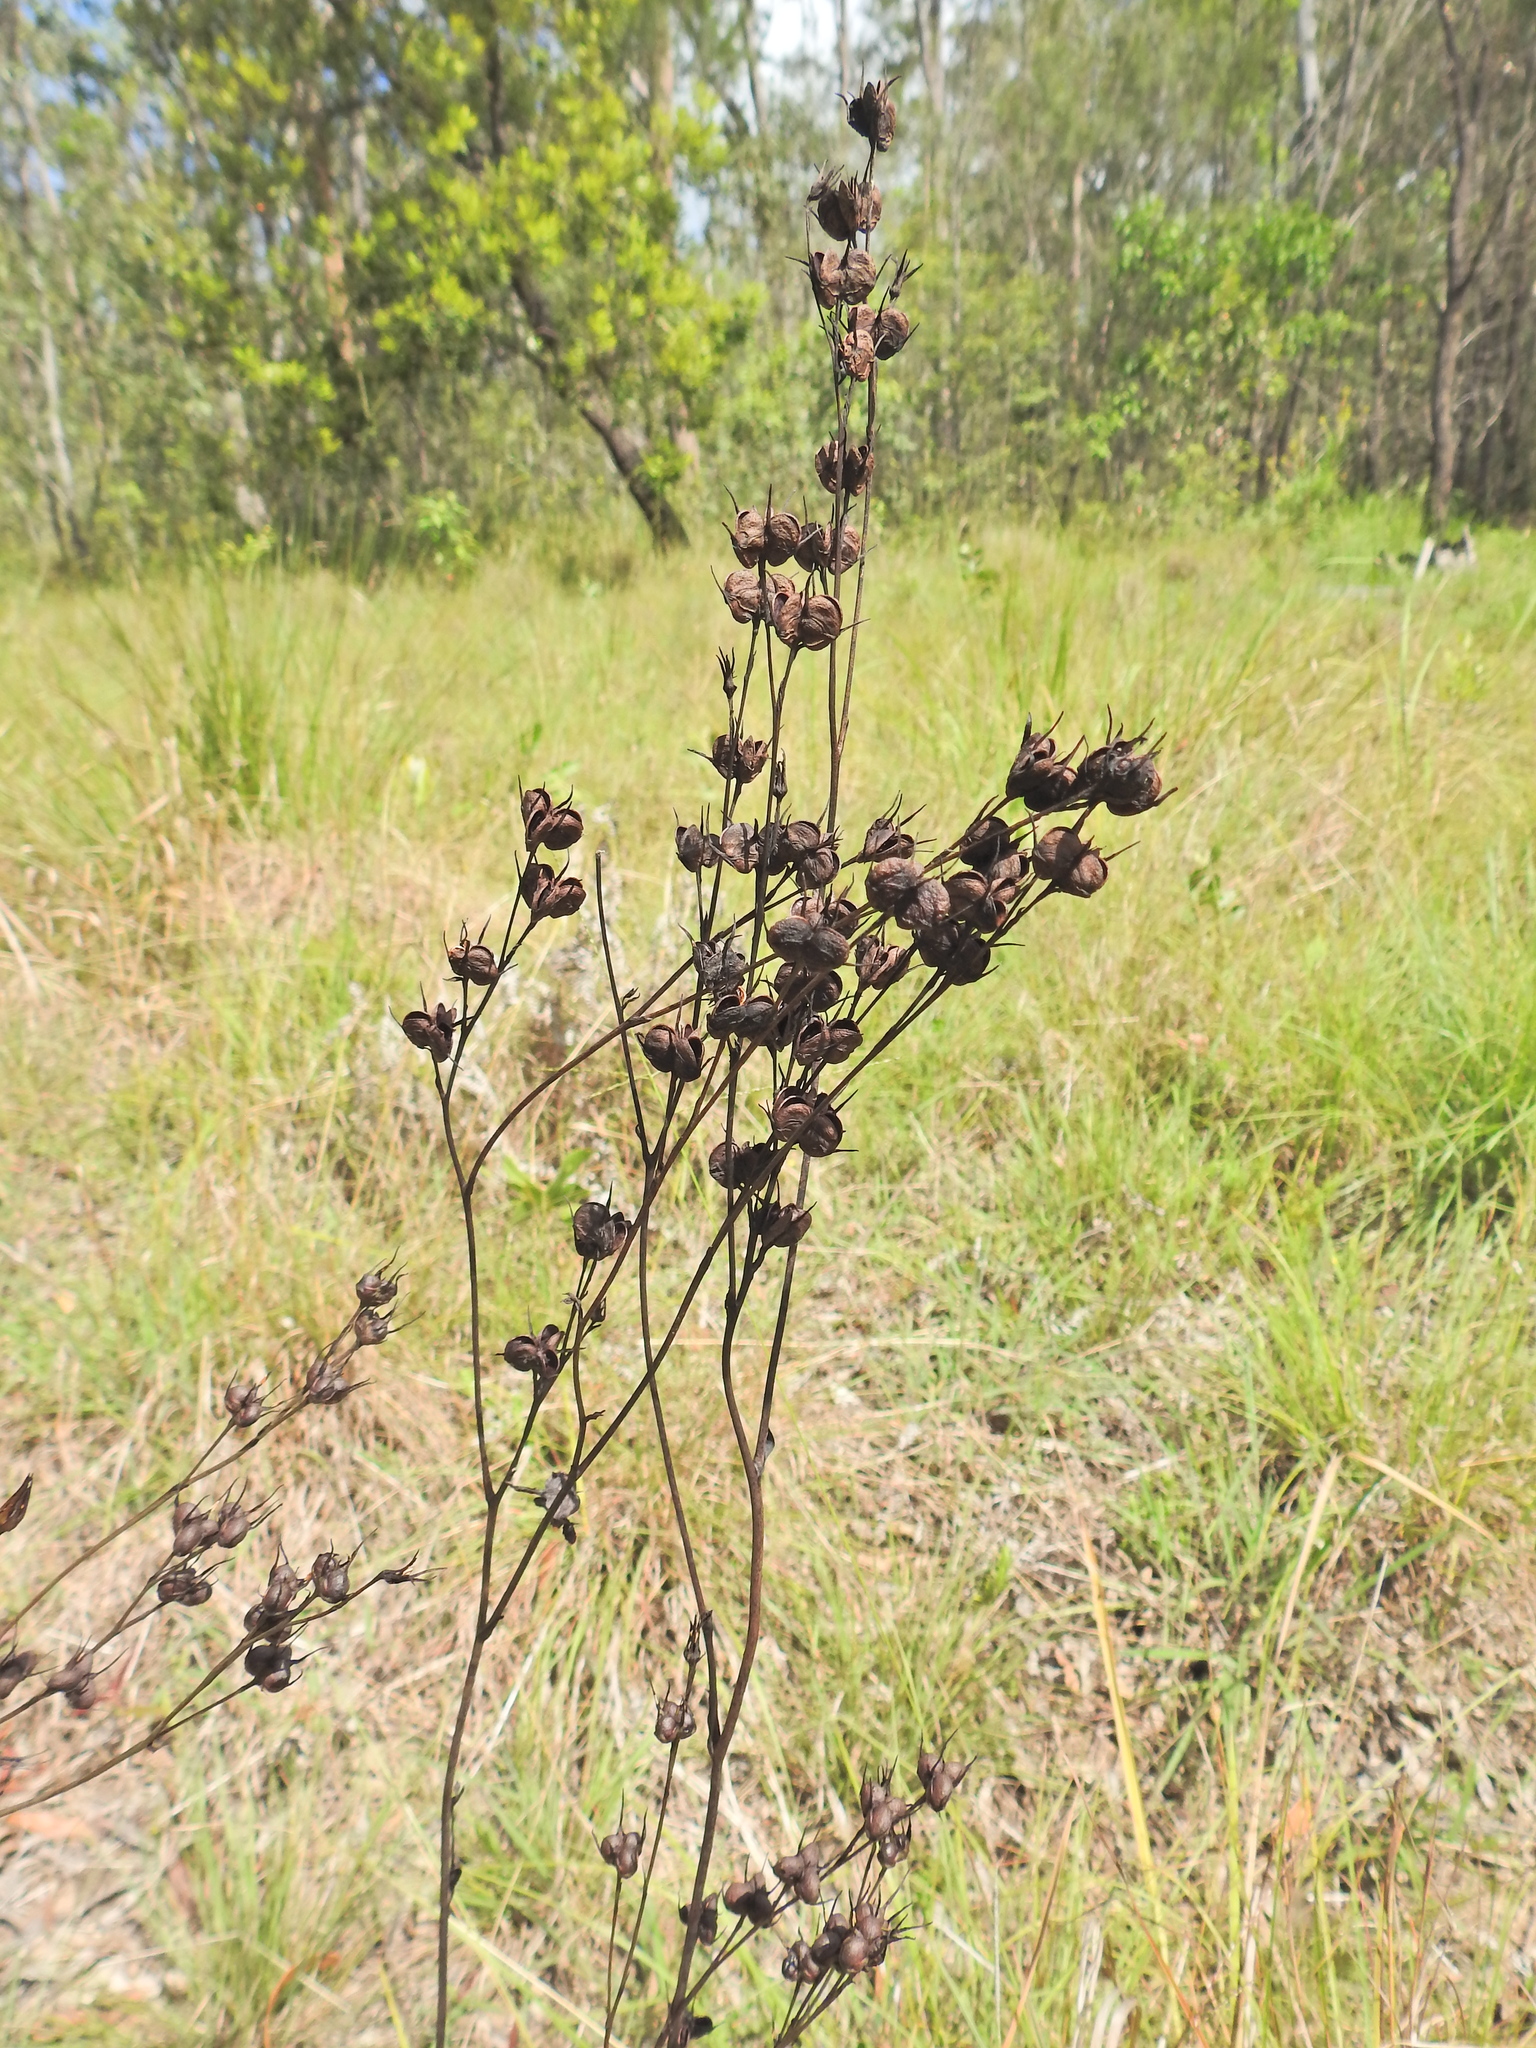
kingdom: Plantae
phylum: Tracheophyta
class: Liliopsida
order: Commelinales
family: Haemodoraceae
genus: Haemodorum
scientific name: Haemodorum austroqueenslandicum
